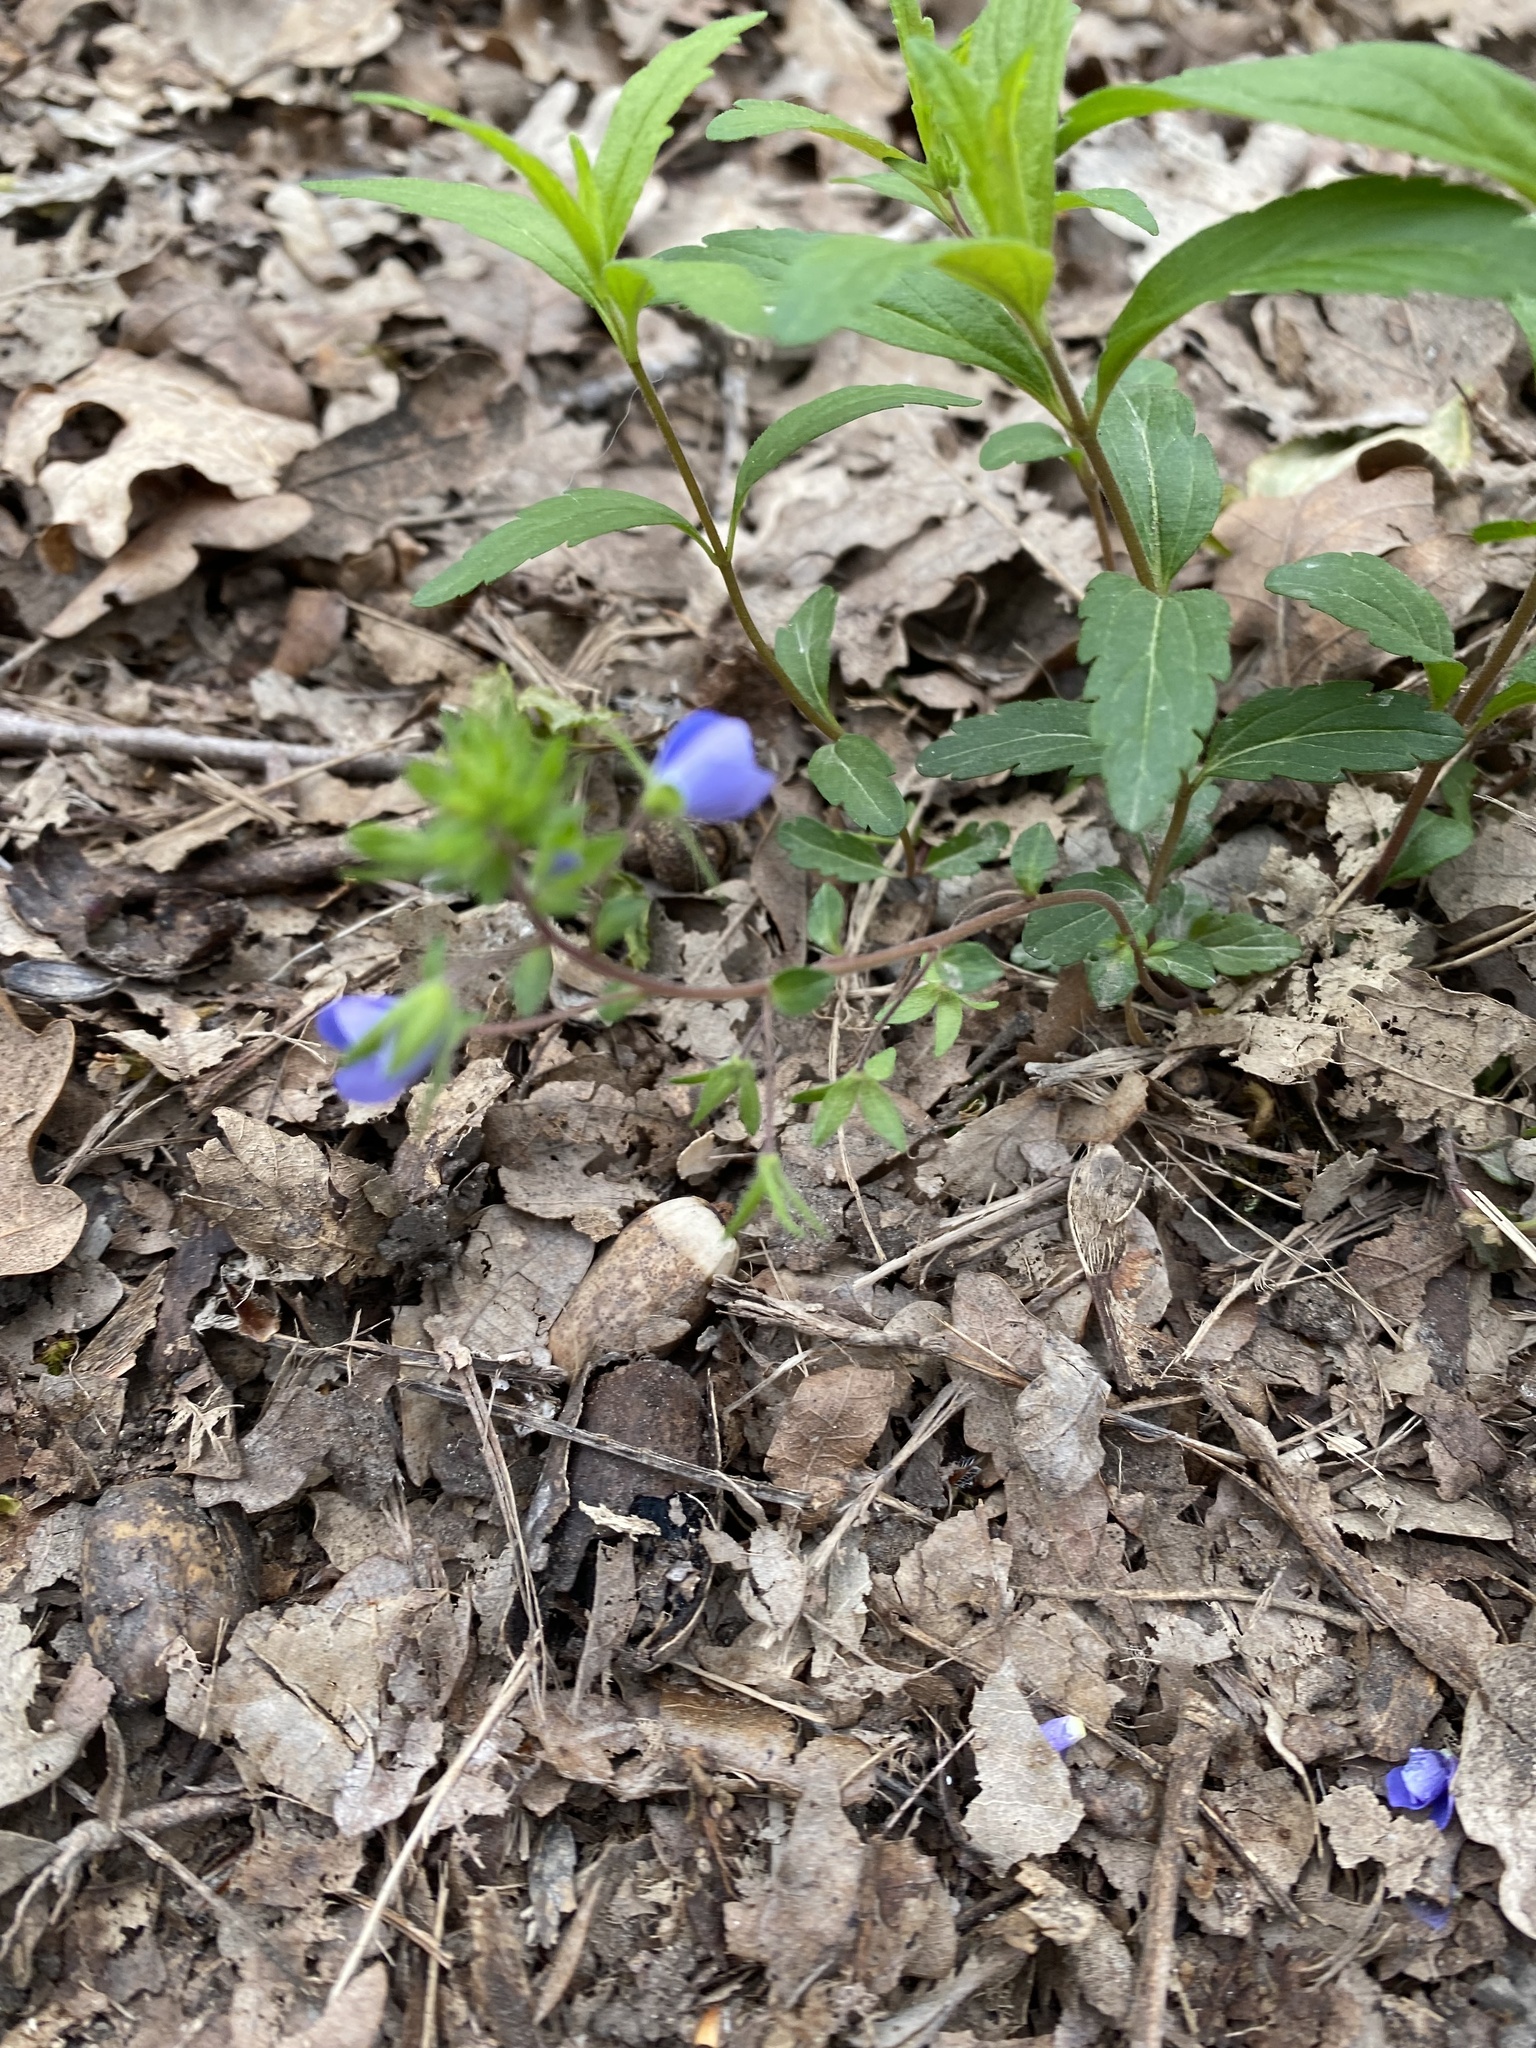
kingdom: Plantae
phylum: Tracheophyta
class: Magnoliopsida
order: Lamiales
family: Plantaginaceae
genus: Veronica
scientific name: Veronica
